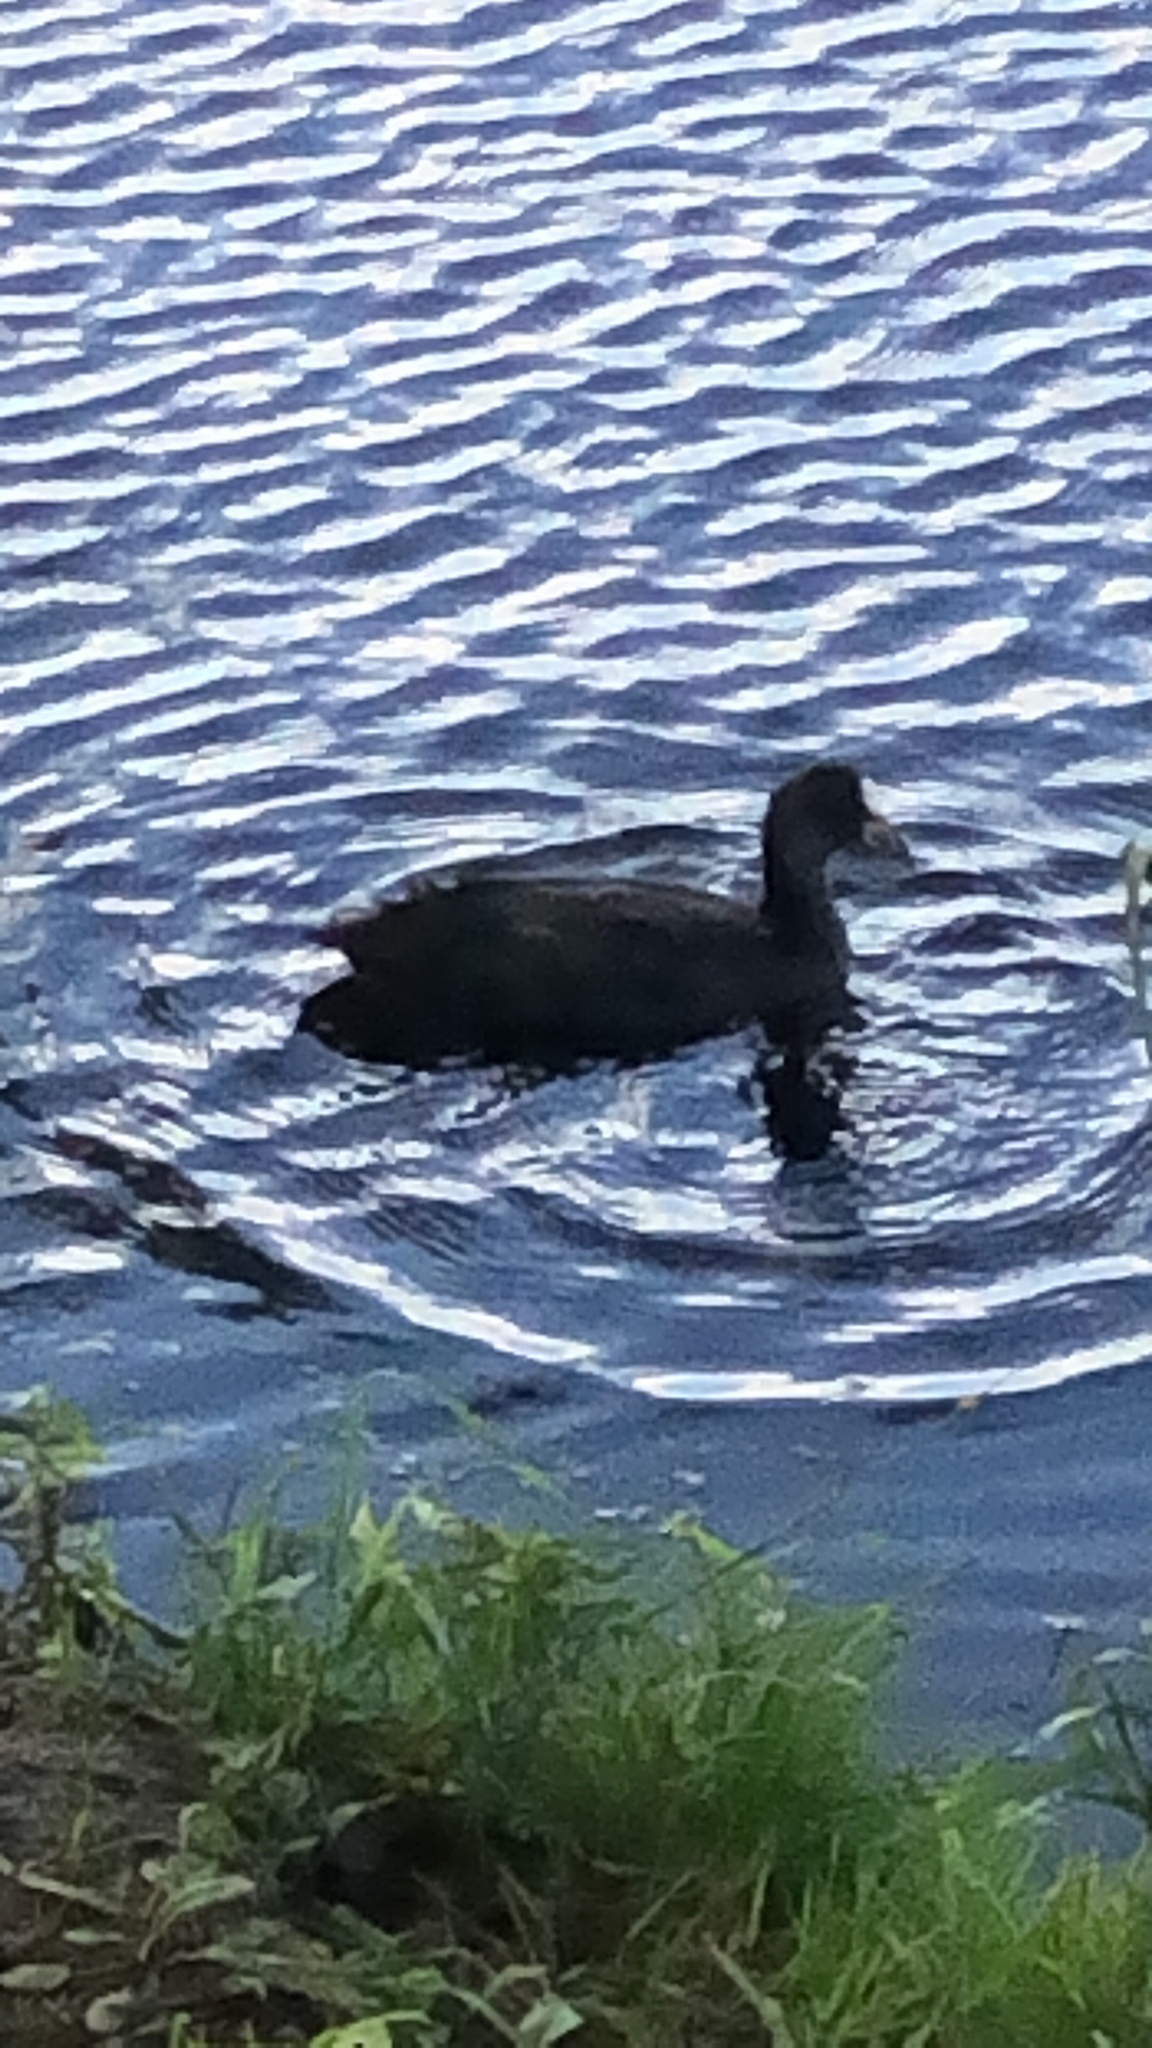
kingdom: Animalia
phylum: Chordata
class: Aves
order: Gruiformes
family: Rallidae
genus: Fulica
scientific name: Fulica atra
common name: Eurasian coot
